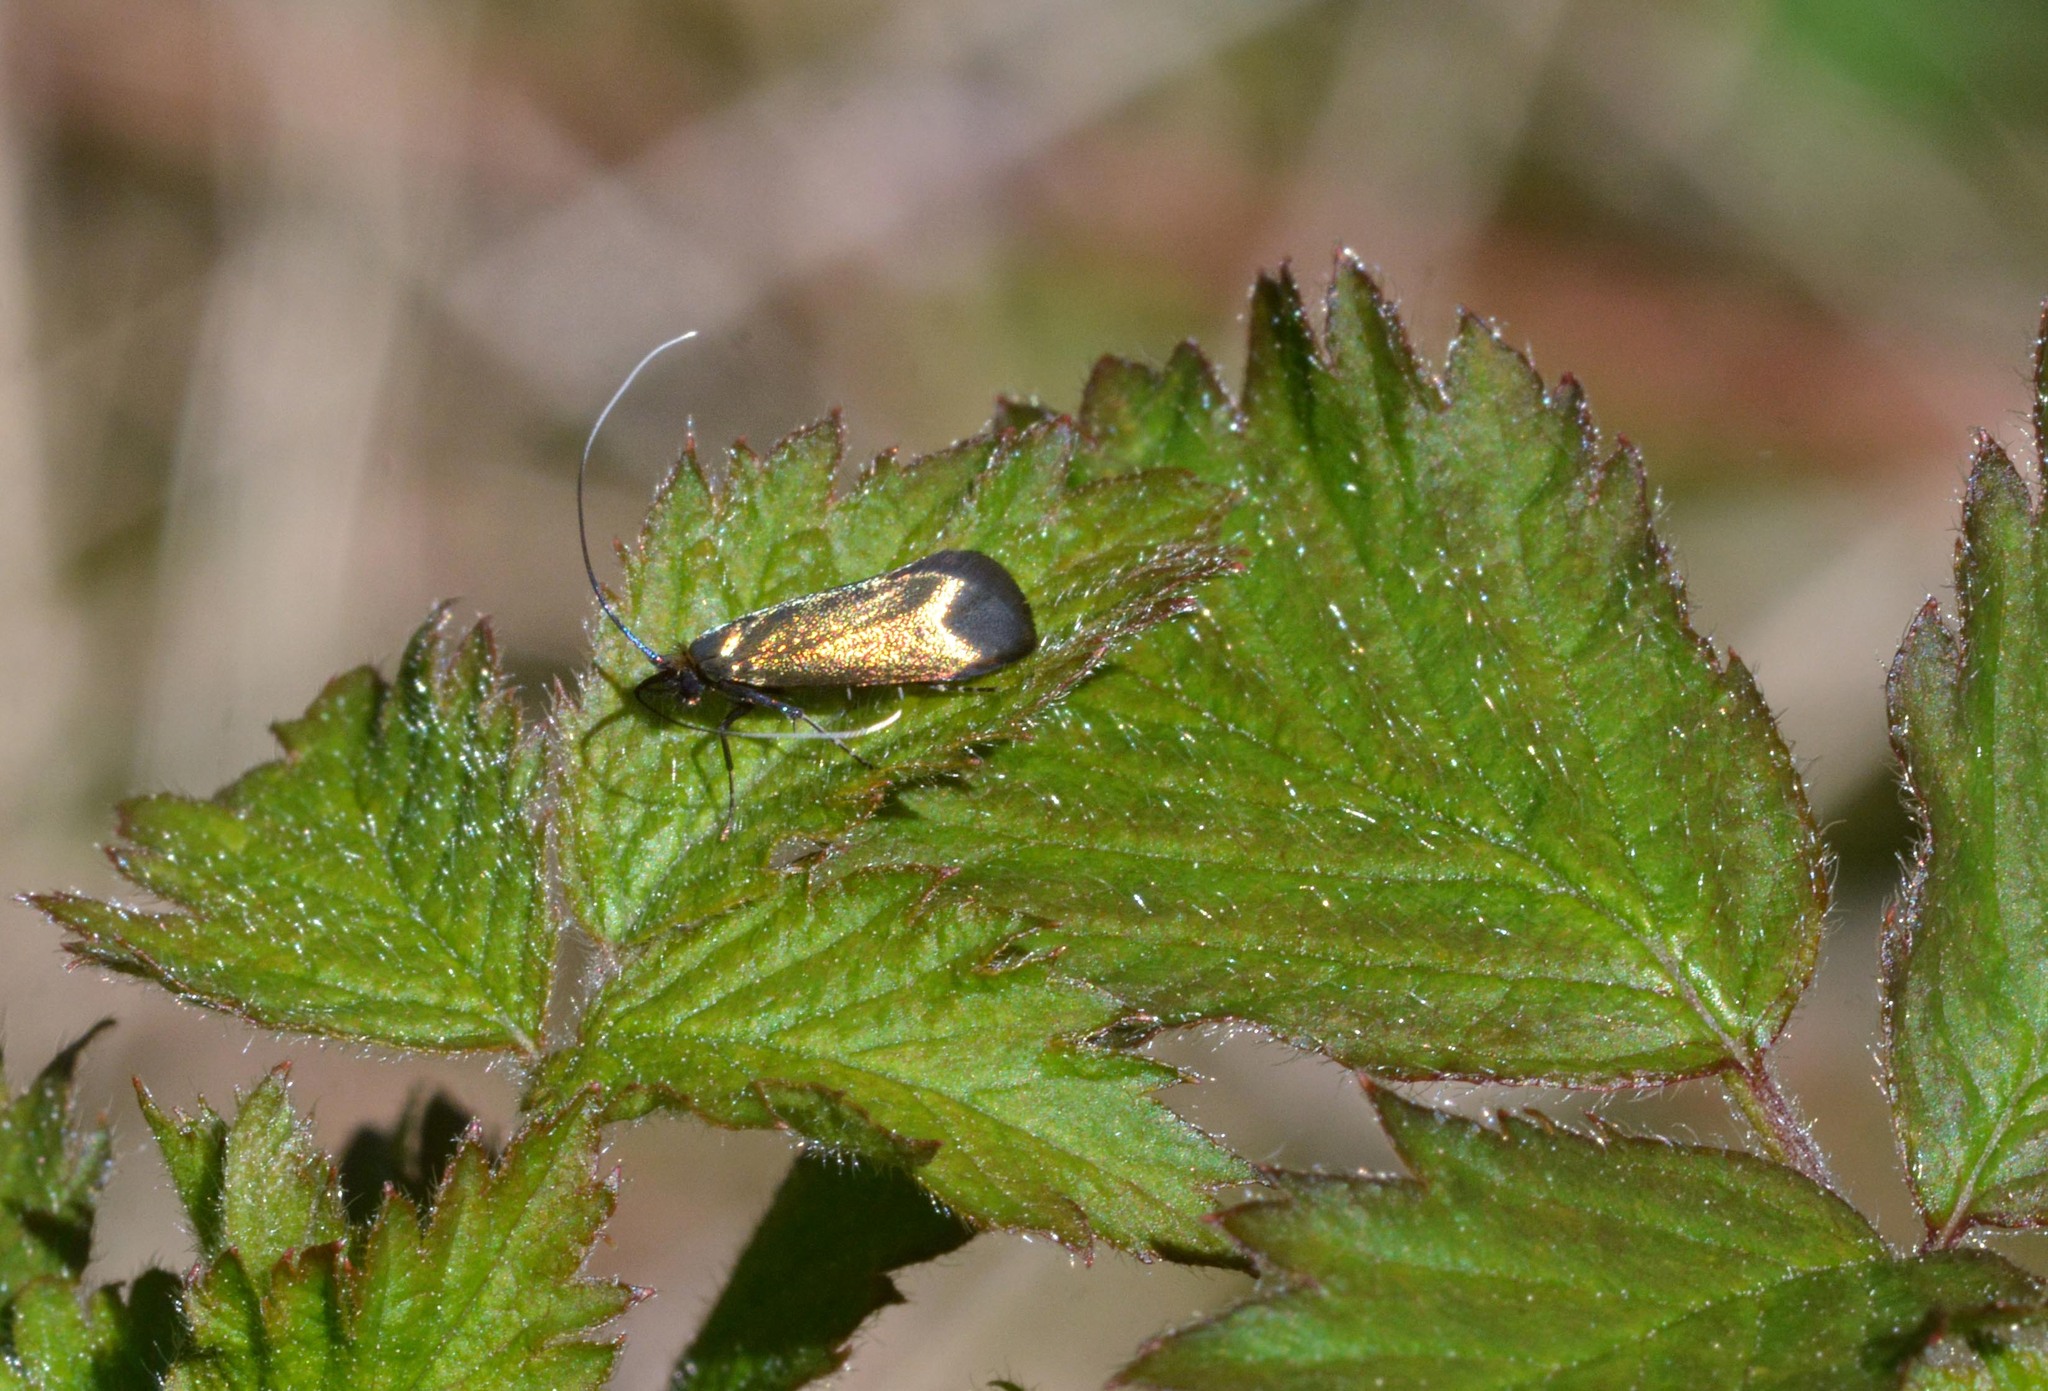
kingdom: Animalia
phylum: Arthropoda
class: Insecta
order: Lepidoptera
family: Adelidae
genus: Adela
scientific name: Adela viridella
